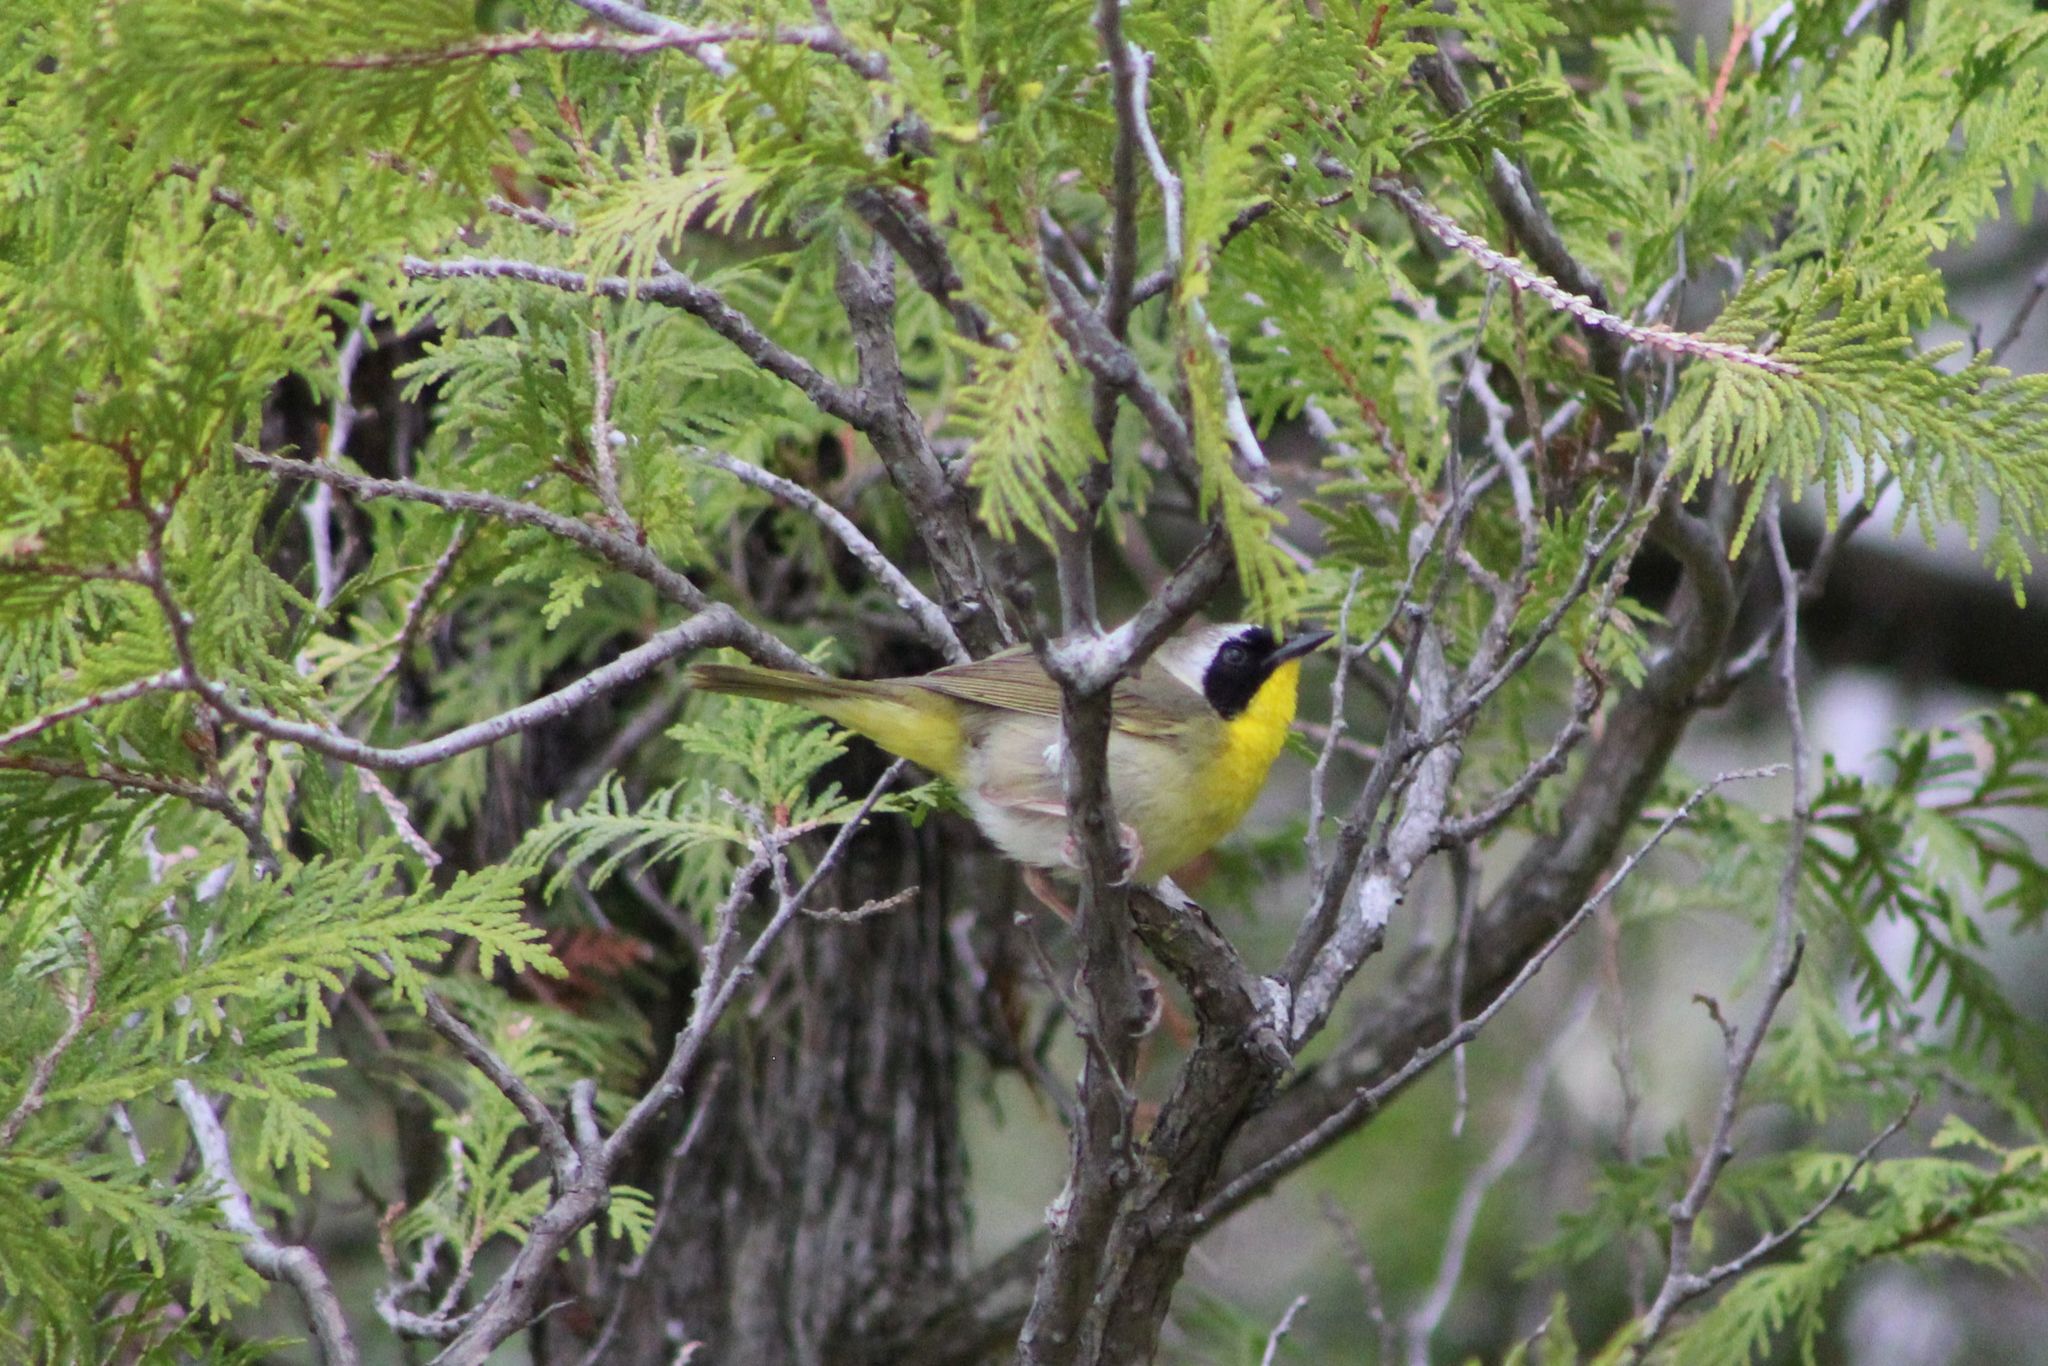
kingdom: Animalia
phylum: Chordata
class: Aves
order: Passeriformes
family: Parulidae
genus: Geothlypis
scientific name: Geothlypis trichas
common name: Common yellowthroat
